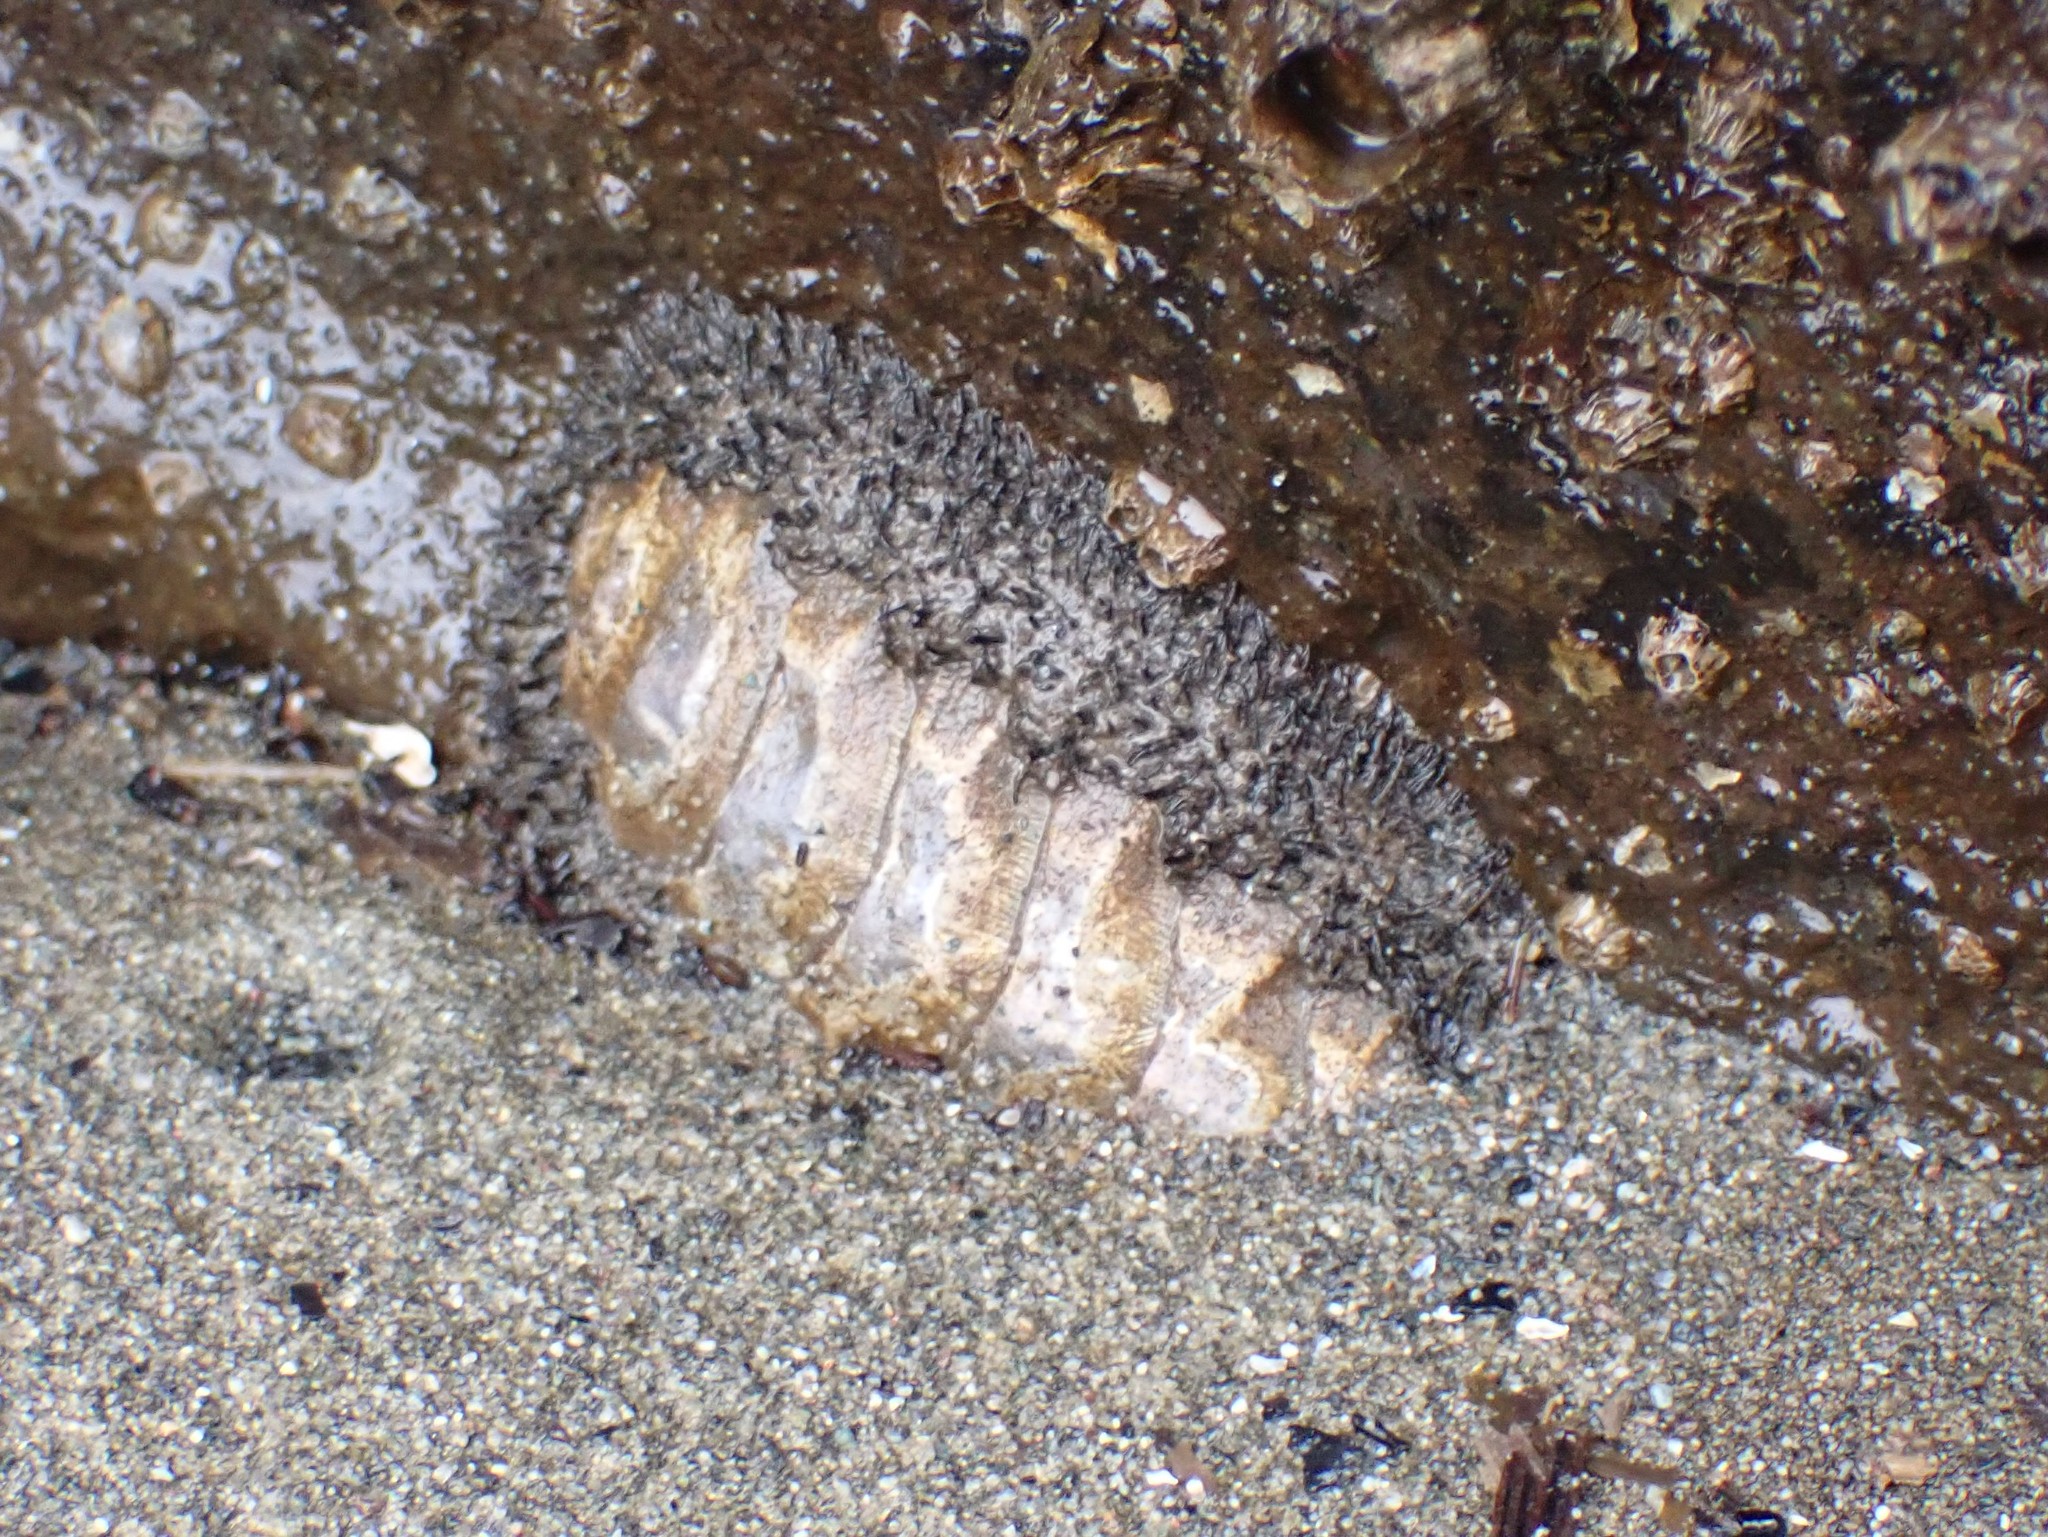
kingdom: Animalia
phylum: Mollusca
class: Polyplacophora
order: Chitonida
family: Mopaliidae
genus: Mopalia
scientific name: Mopalia muscosa
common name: Mossy chiton
